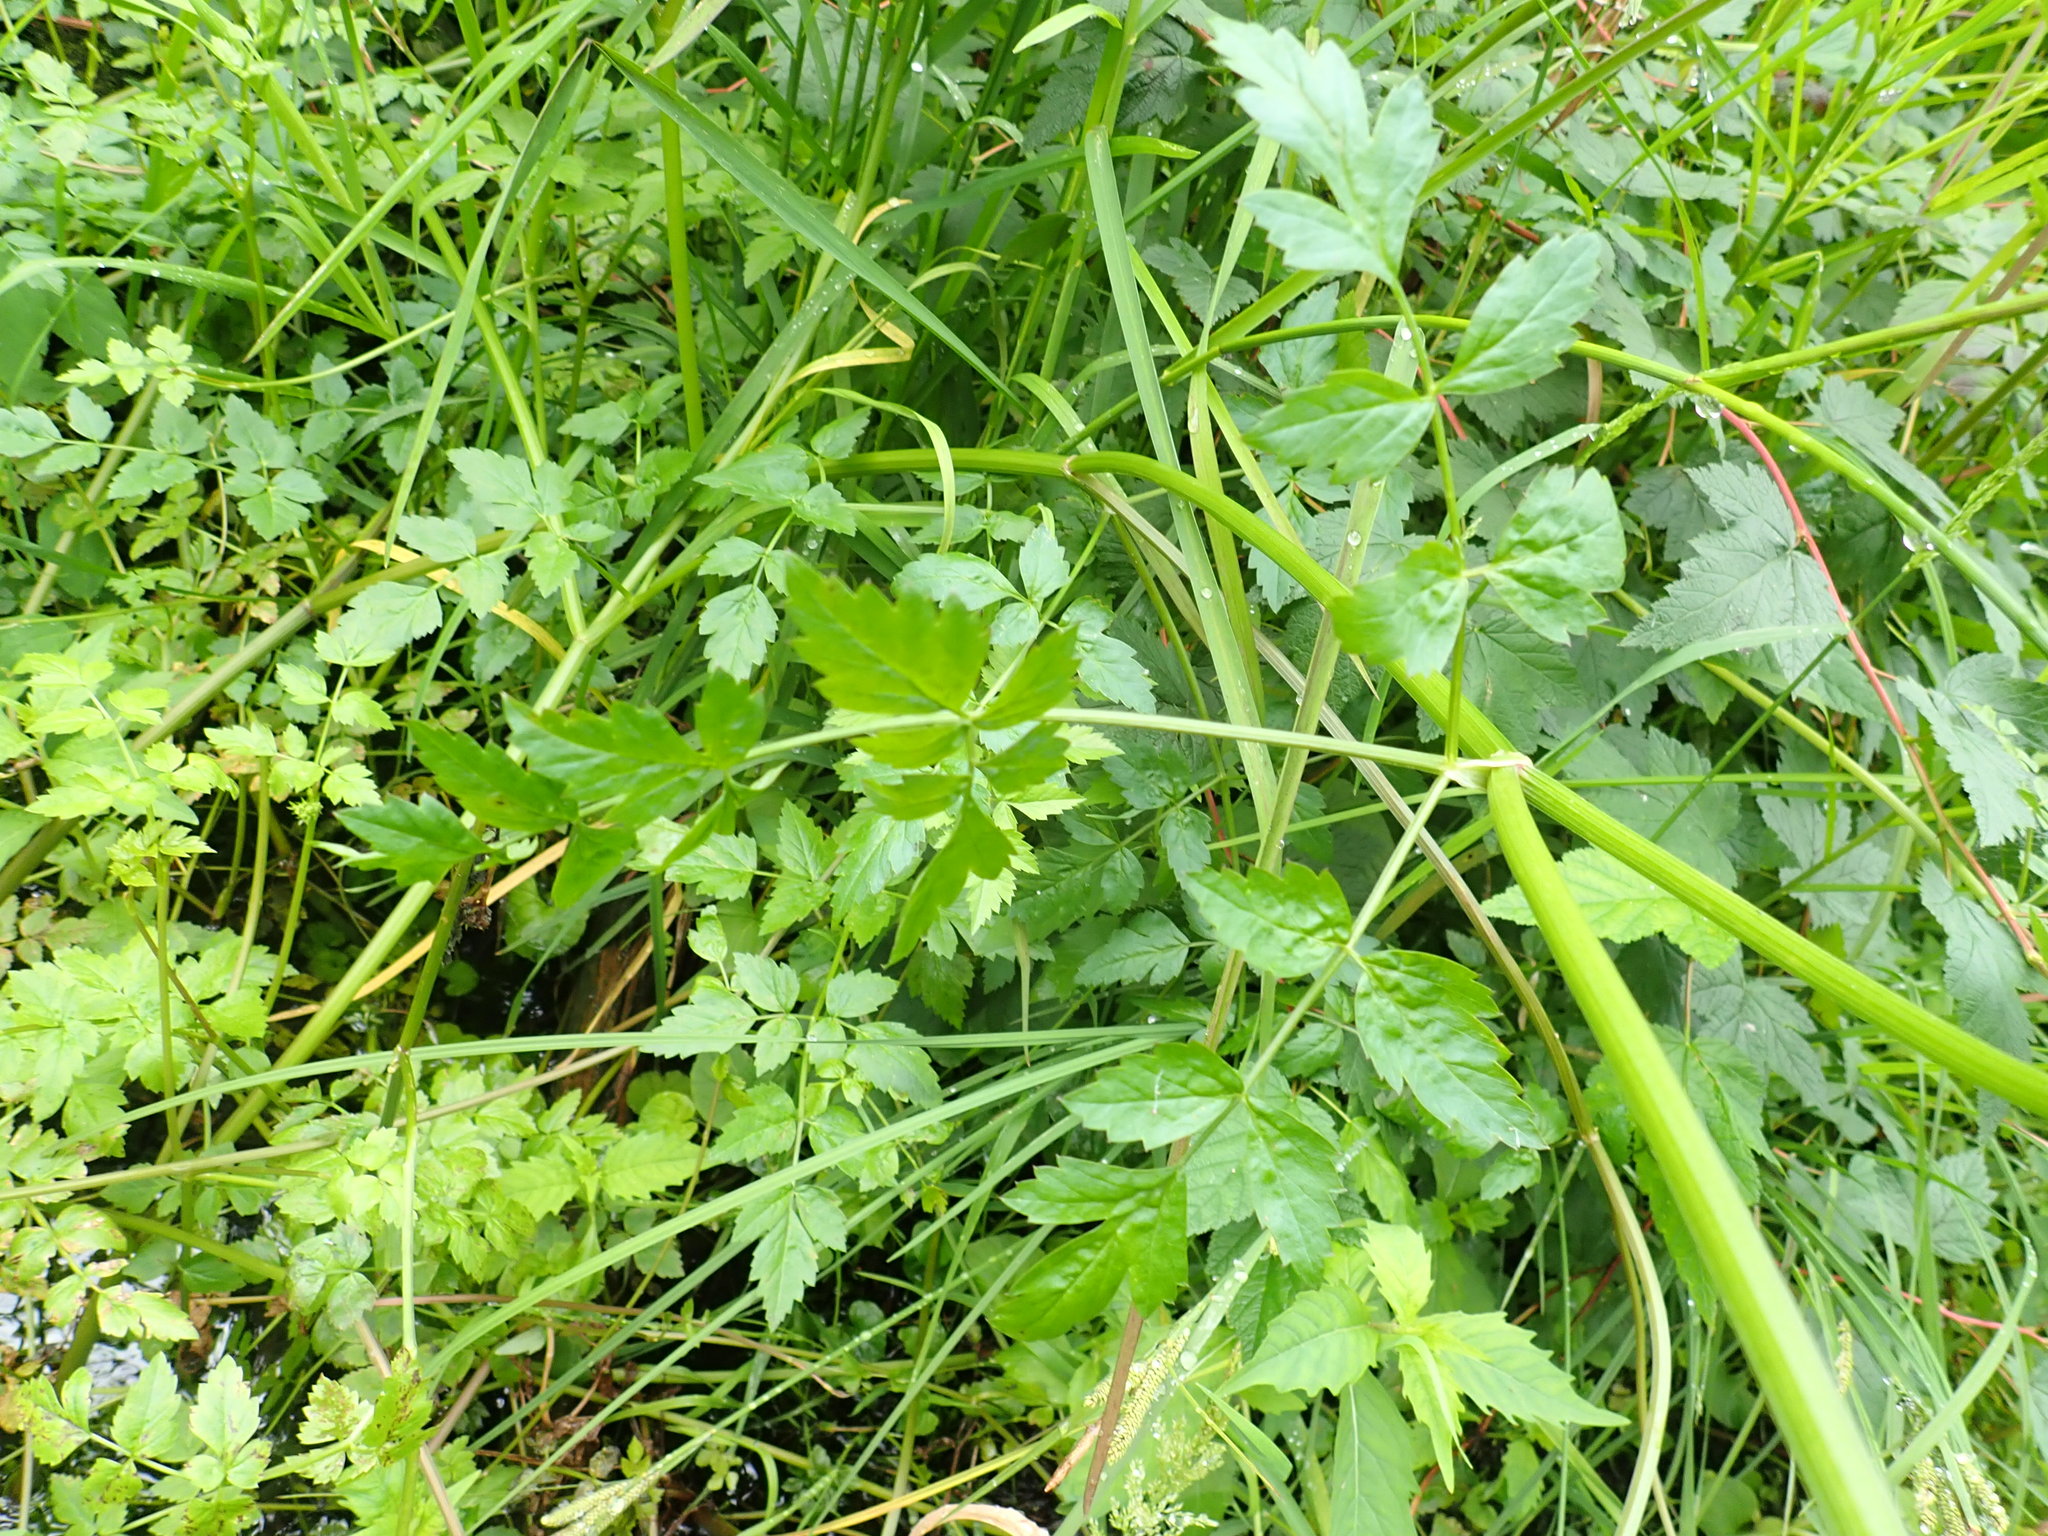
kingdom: Plantae
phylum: Tracheophyta
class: Magnoliopsida
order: Apiales
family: Apiaceae
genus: Oenanthe
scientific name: Oenanthe sarmentosa
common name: American water-parsley
